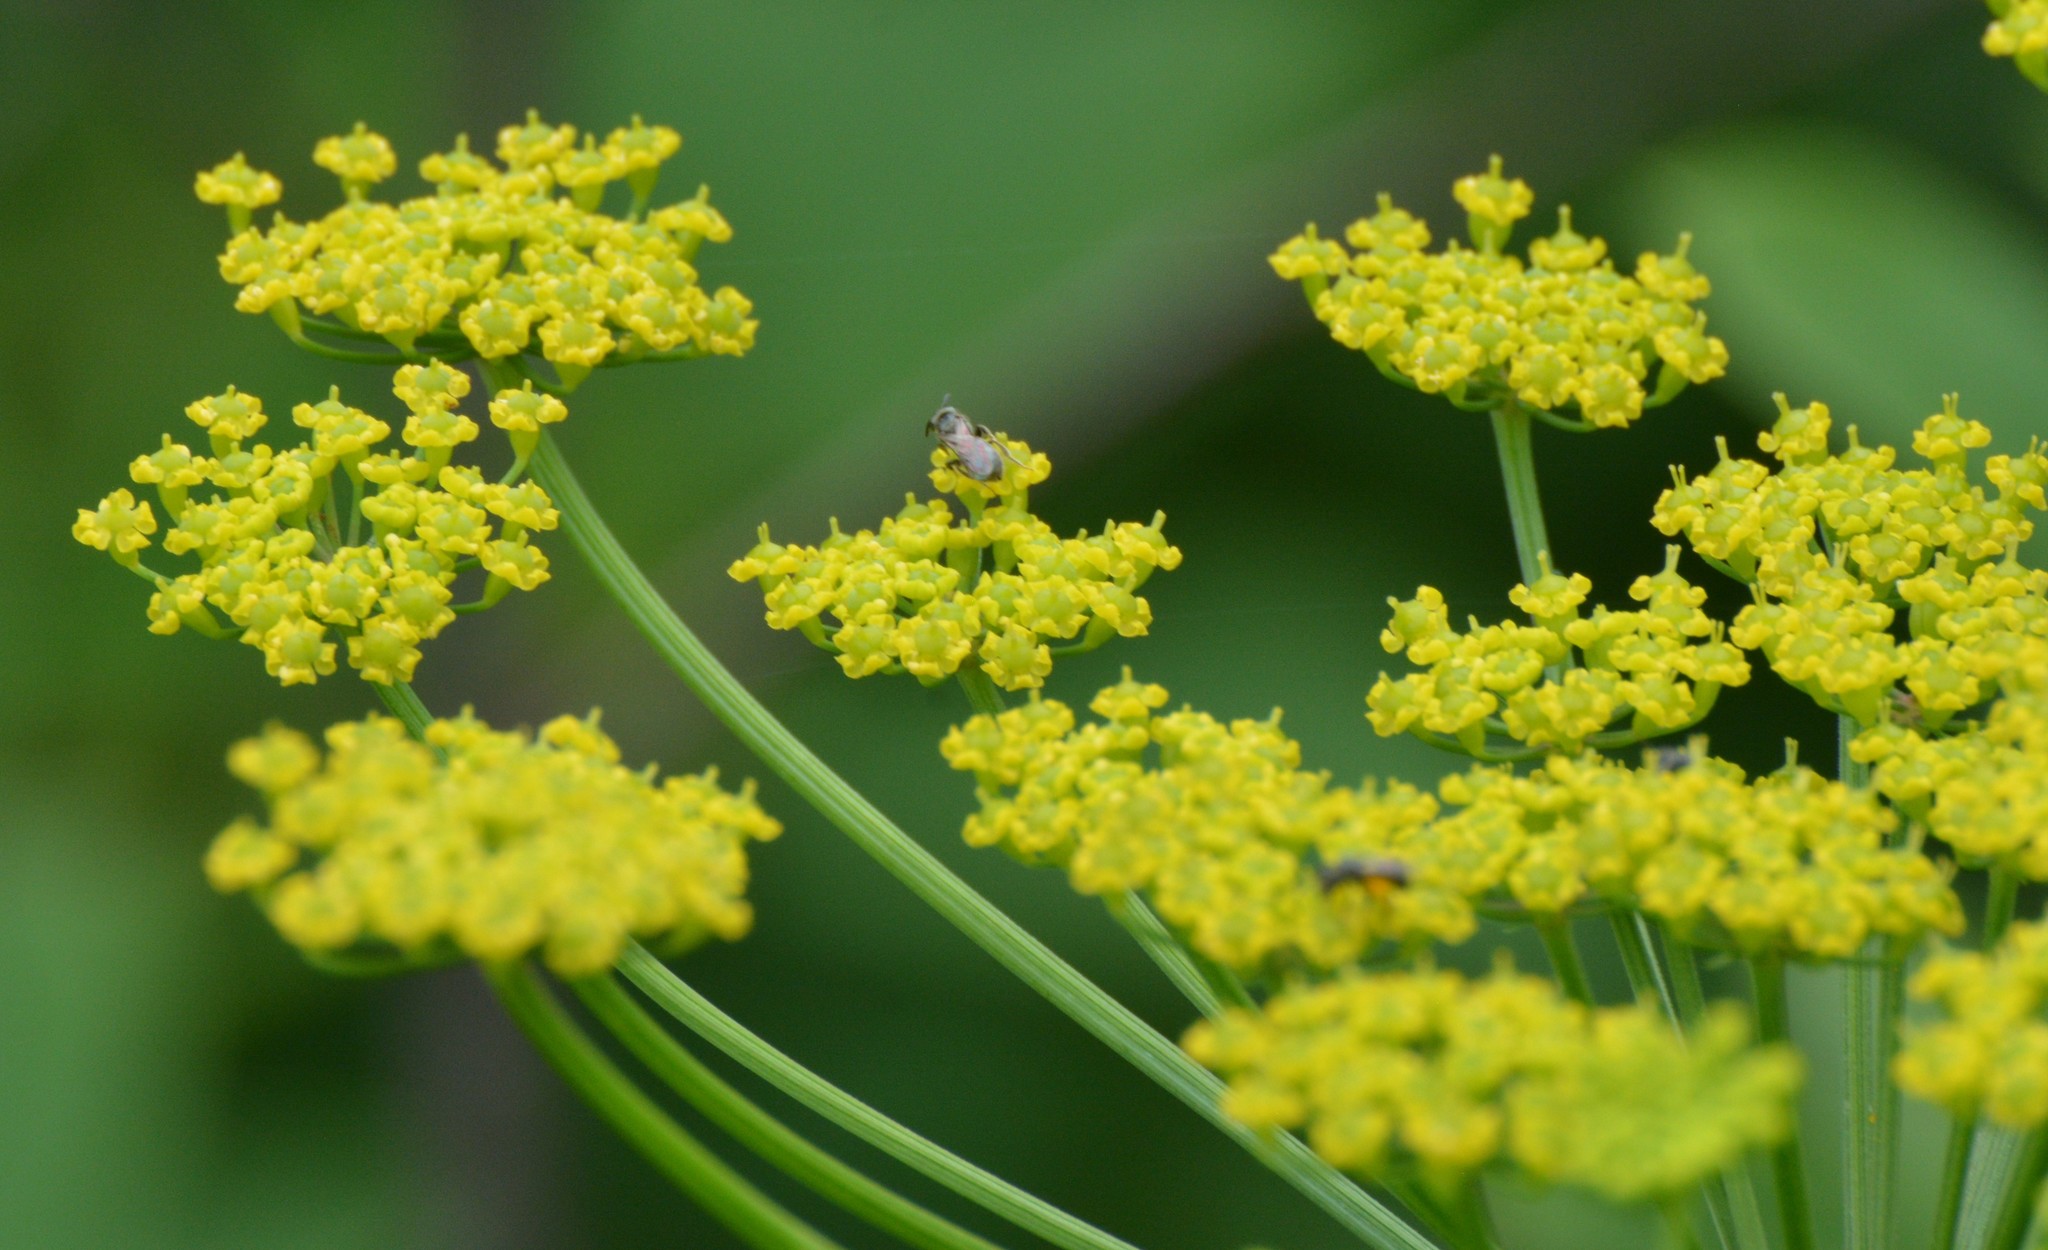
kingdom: Plantae
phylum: Tracheophyta
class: Magnoliopsida
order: Apiales
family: Apiaceae
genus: Pastinaca
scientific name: Pastinaca sativa
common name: Wild parsnip
